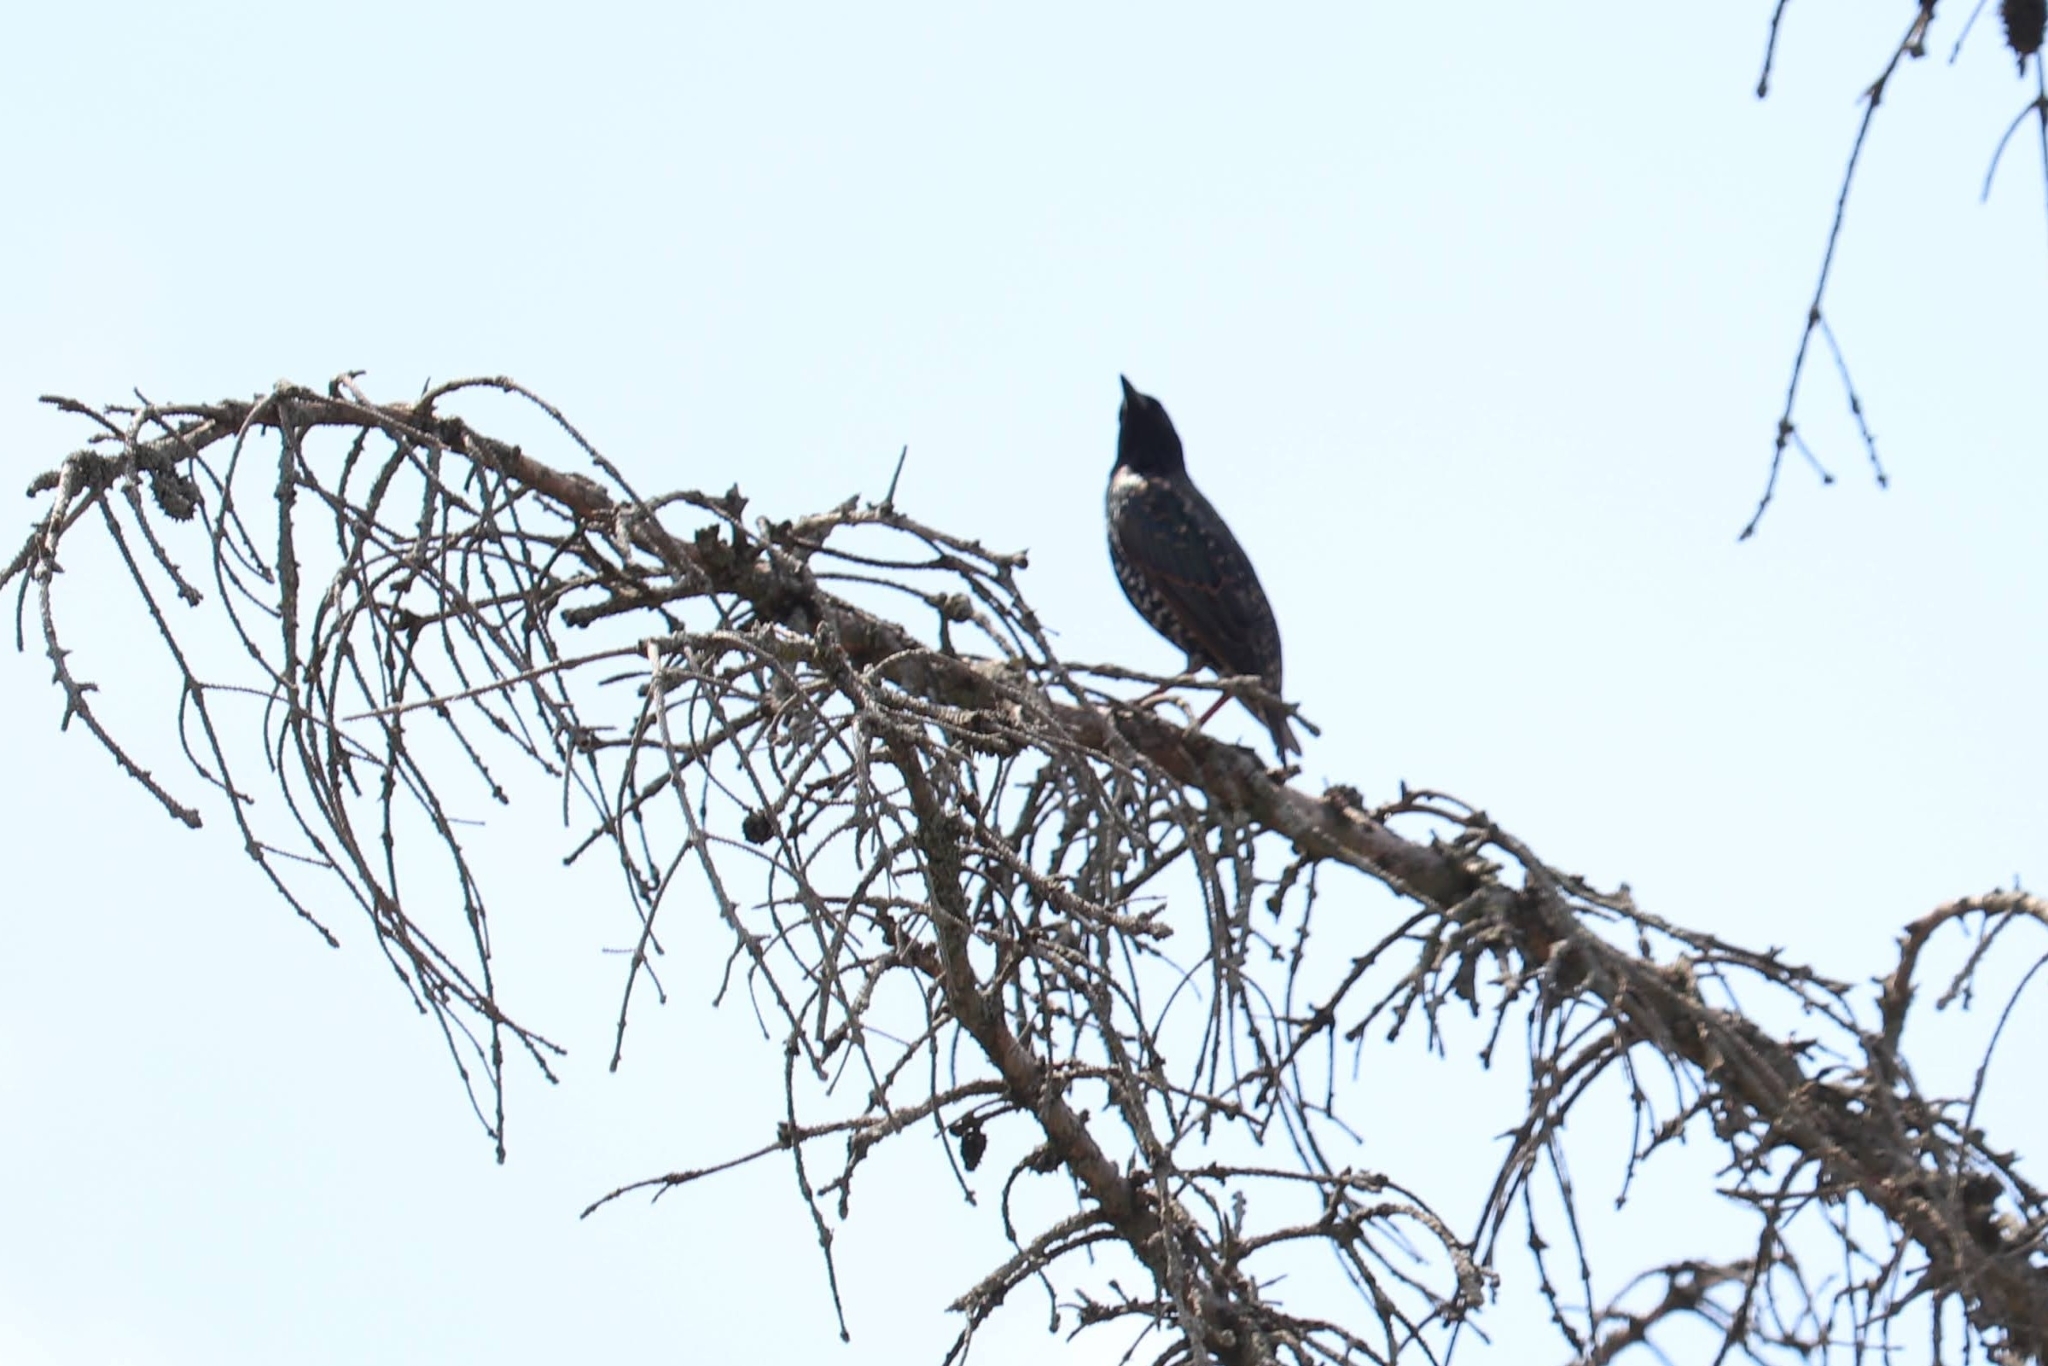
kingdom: Animalia
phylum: Chordata
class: Aves
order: Passeriformes
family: Sturnidae
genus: Sturnus
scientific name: Sturnus vulgaris
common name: Common starling
